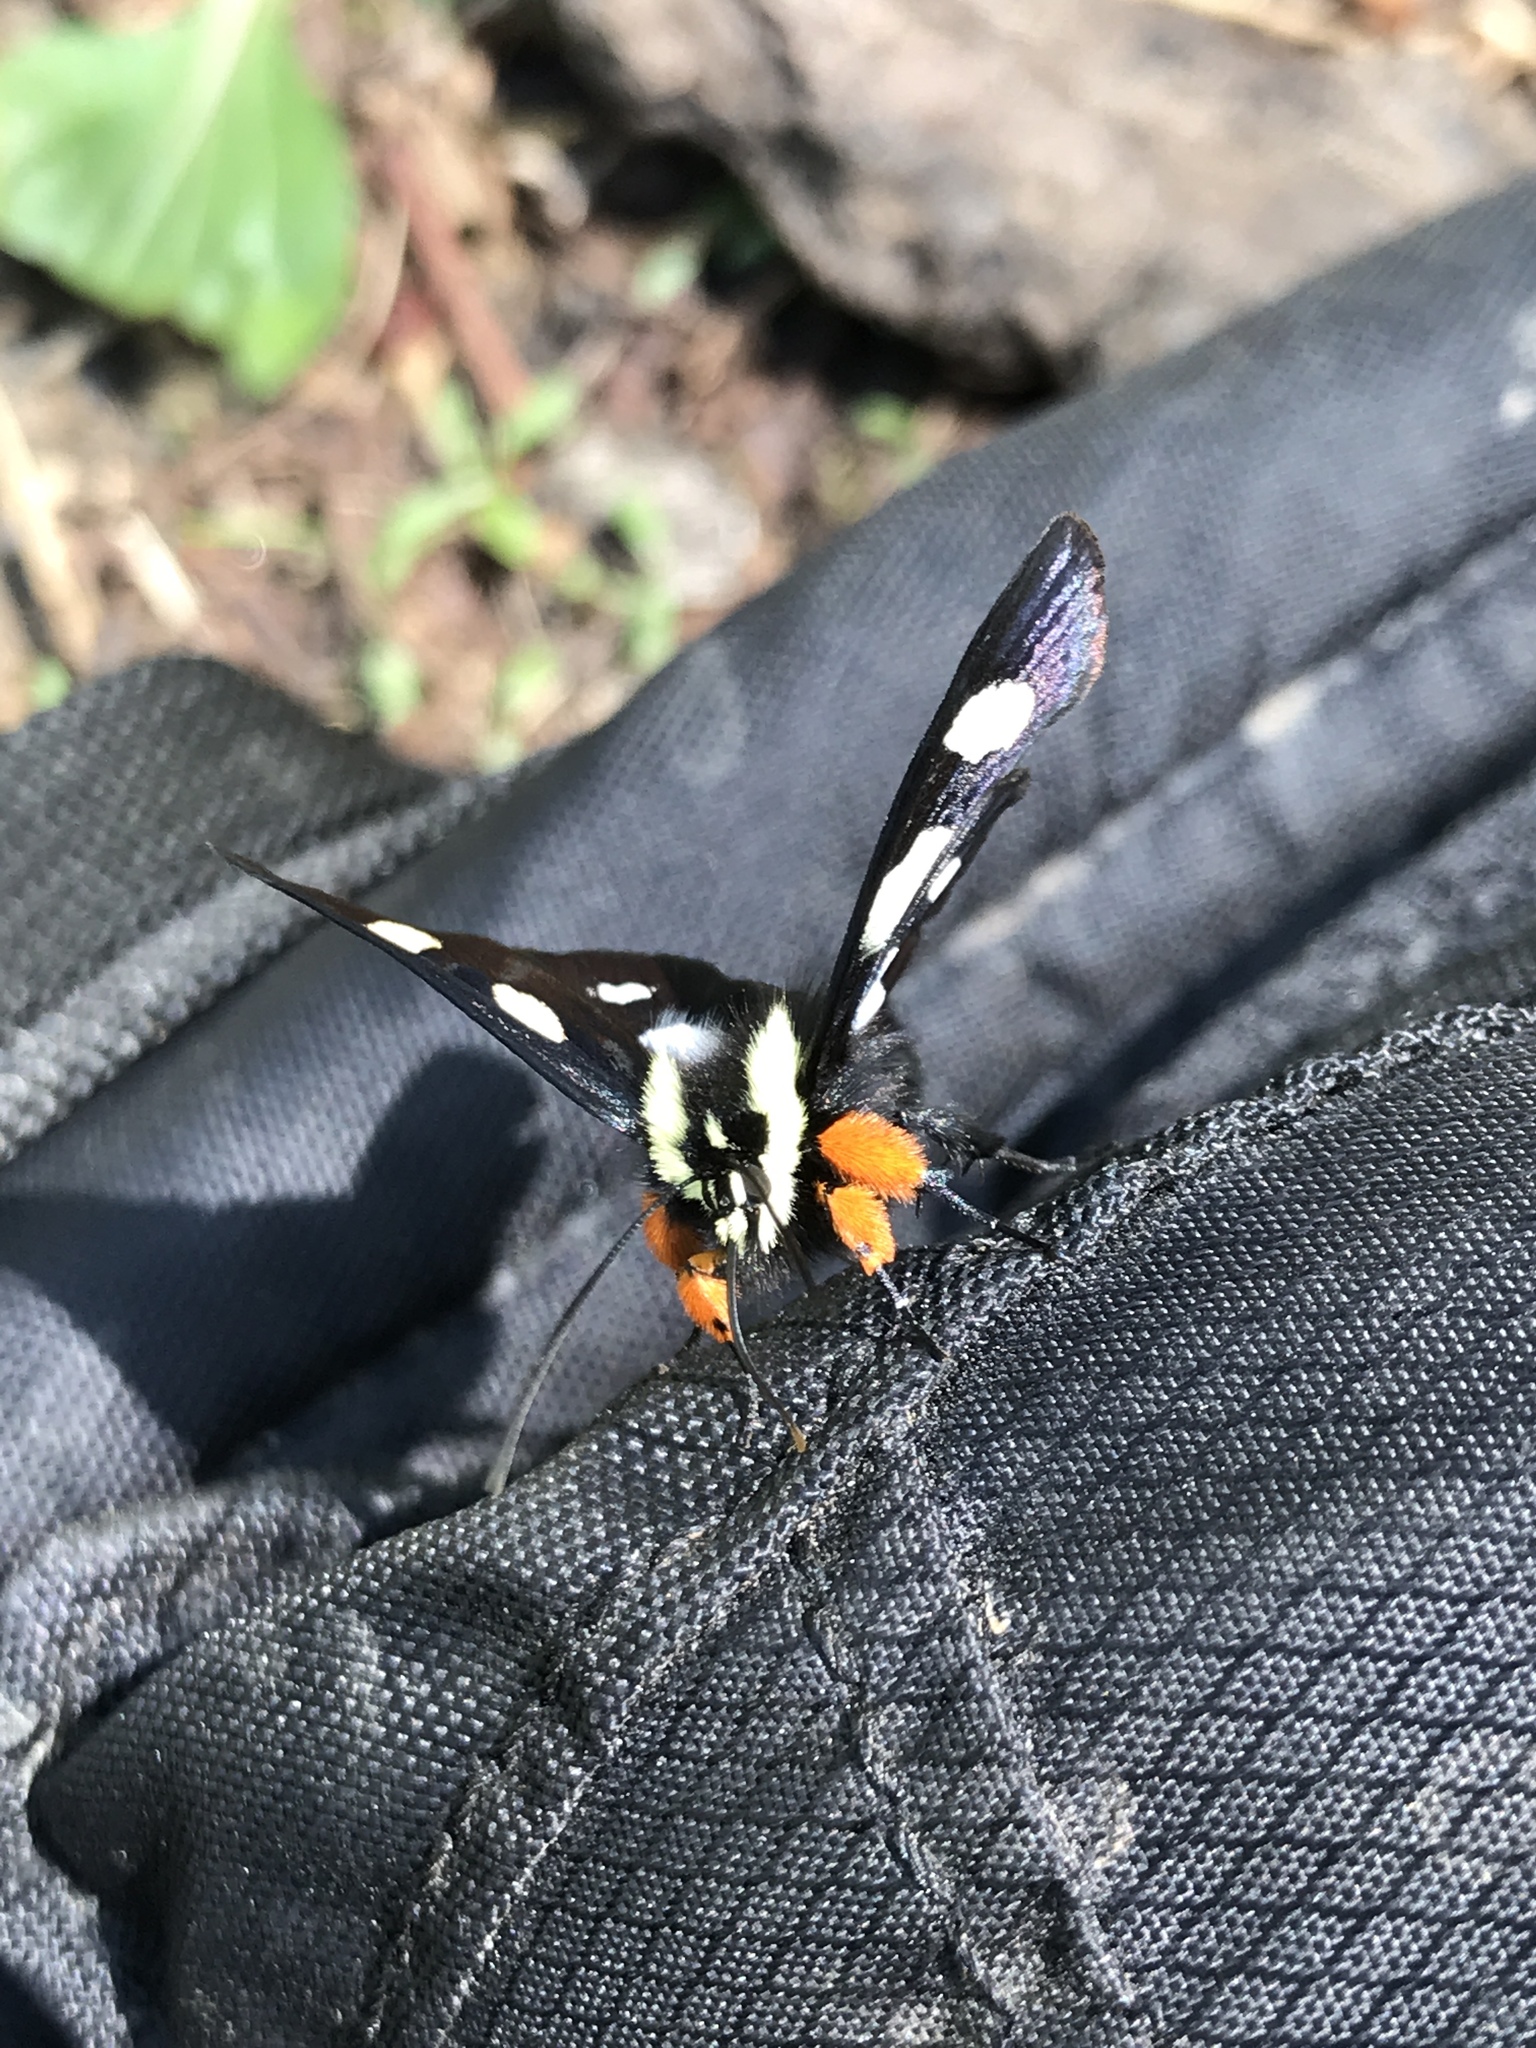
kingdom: Animalia
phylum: Arthropoda
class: Insecta
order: Lepidoptera
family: Noctuidae
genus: Alypia
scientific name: Alypia octomaculata
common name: Eight-spotted forester
